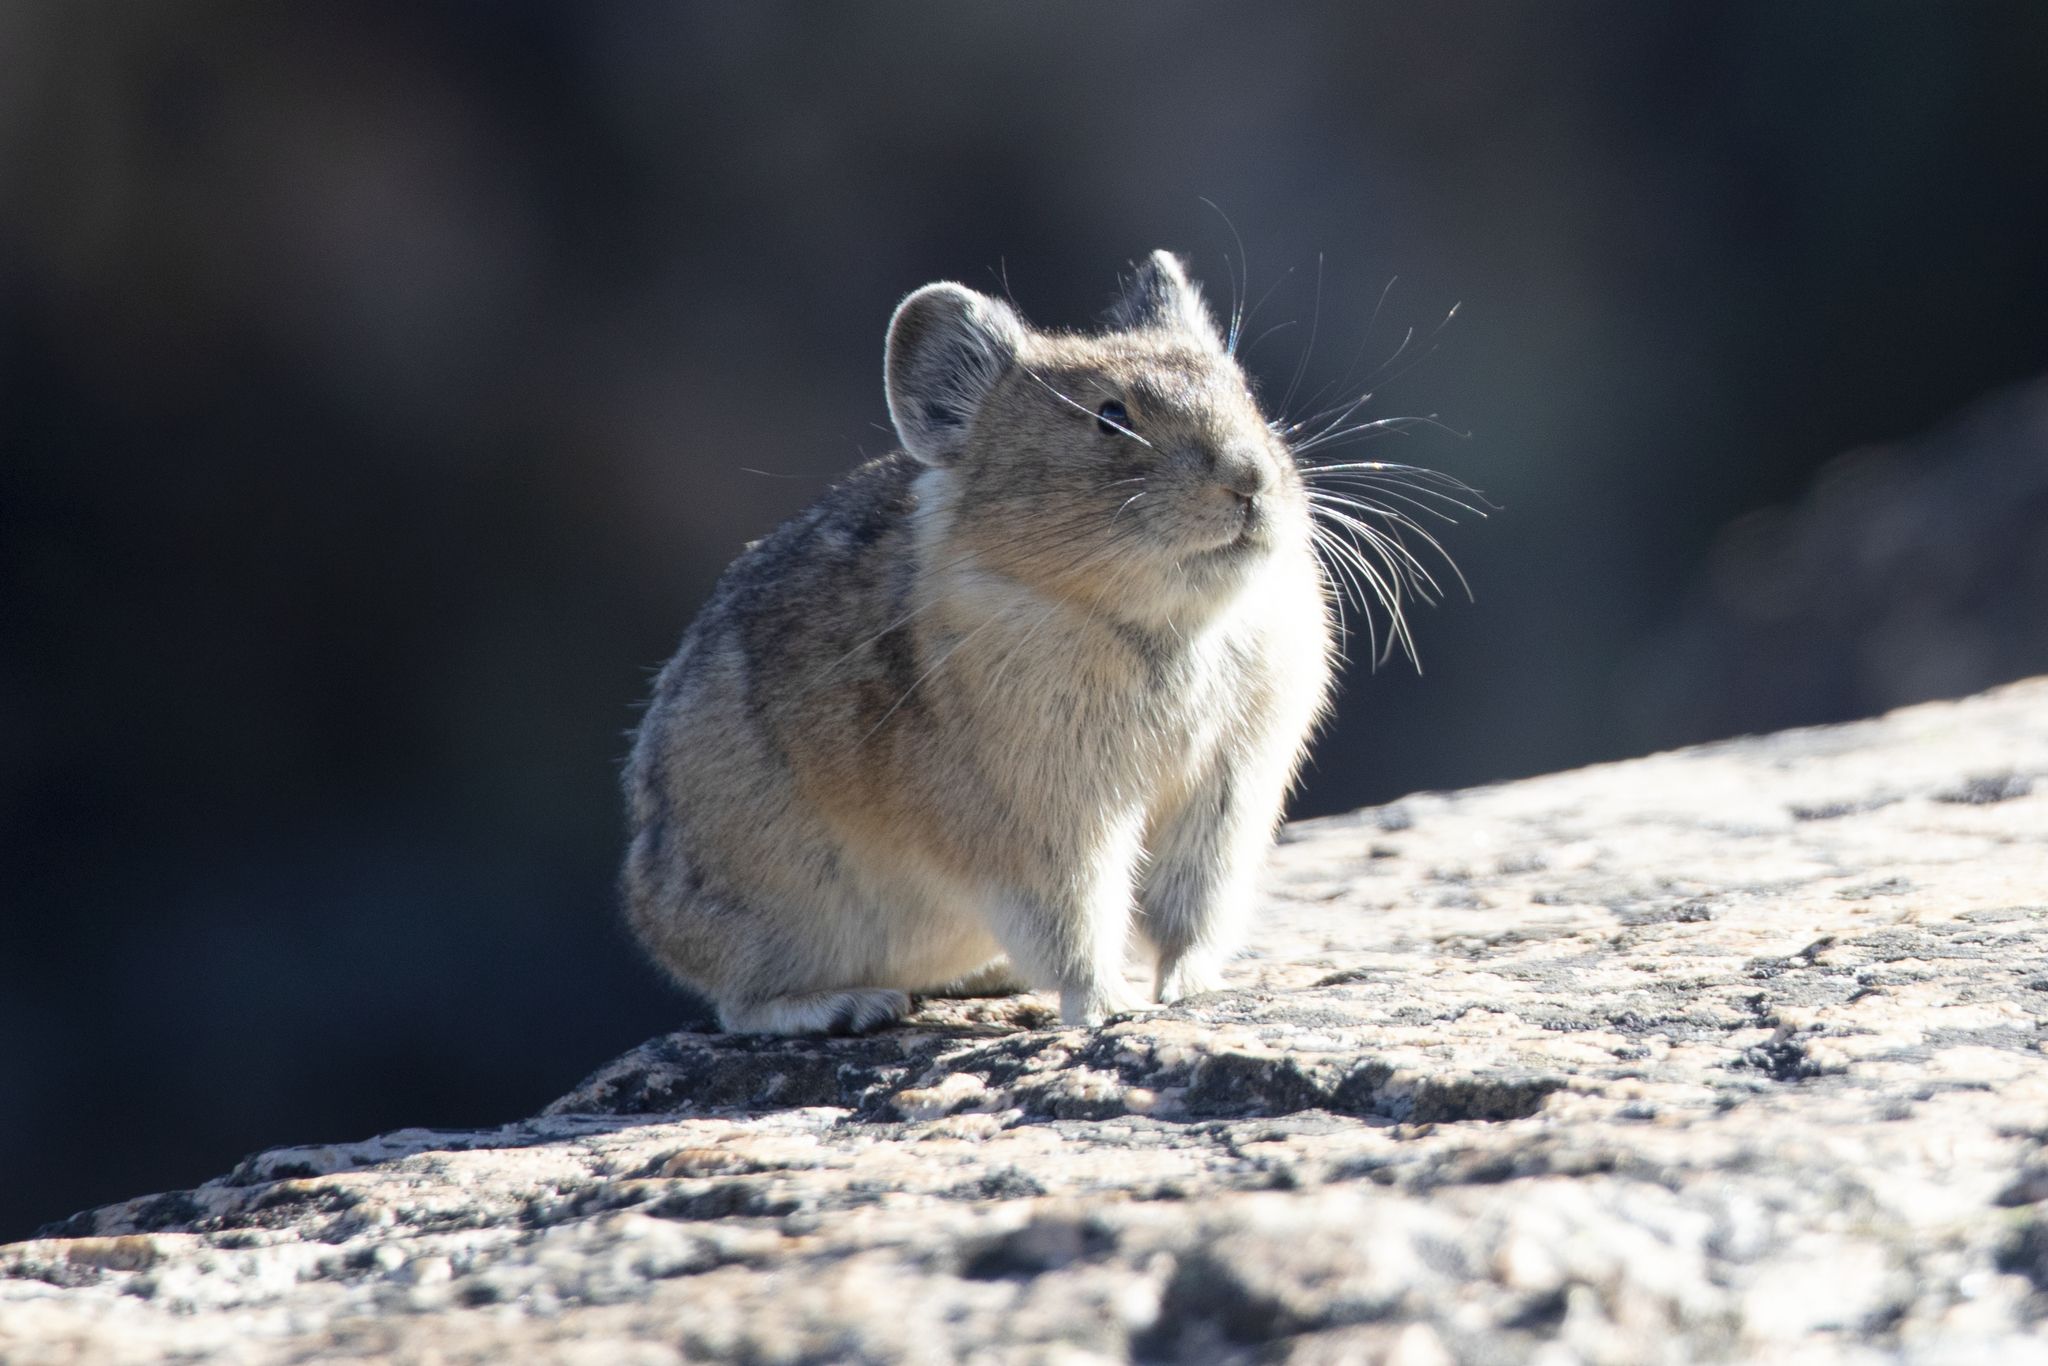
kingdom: Animalia
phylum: Chordata
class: Mammalia
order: Lagomorpha
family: Ochotonidae
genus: Ochotona
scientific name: Ochotona princeps
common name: American pika
